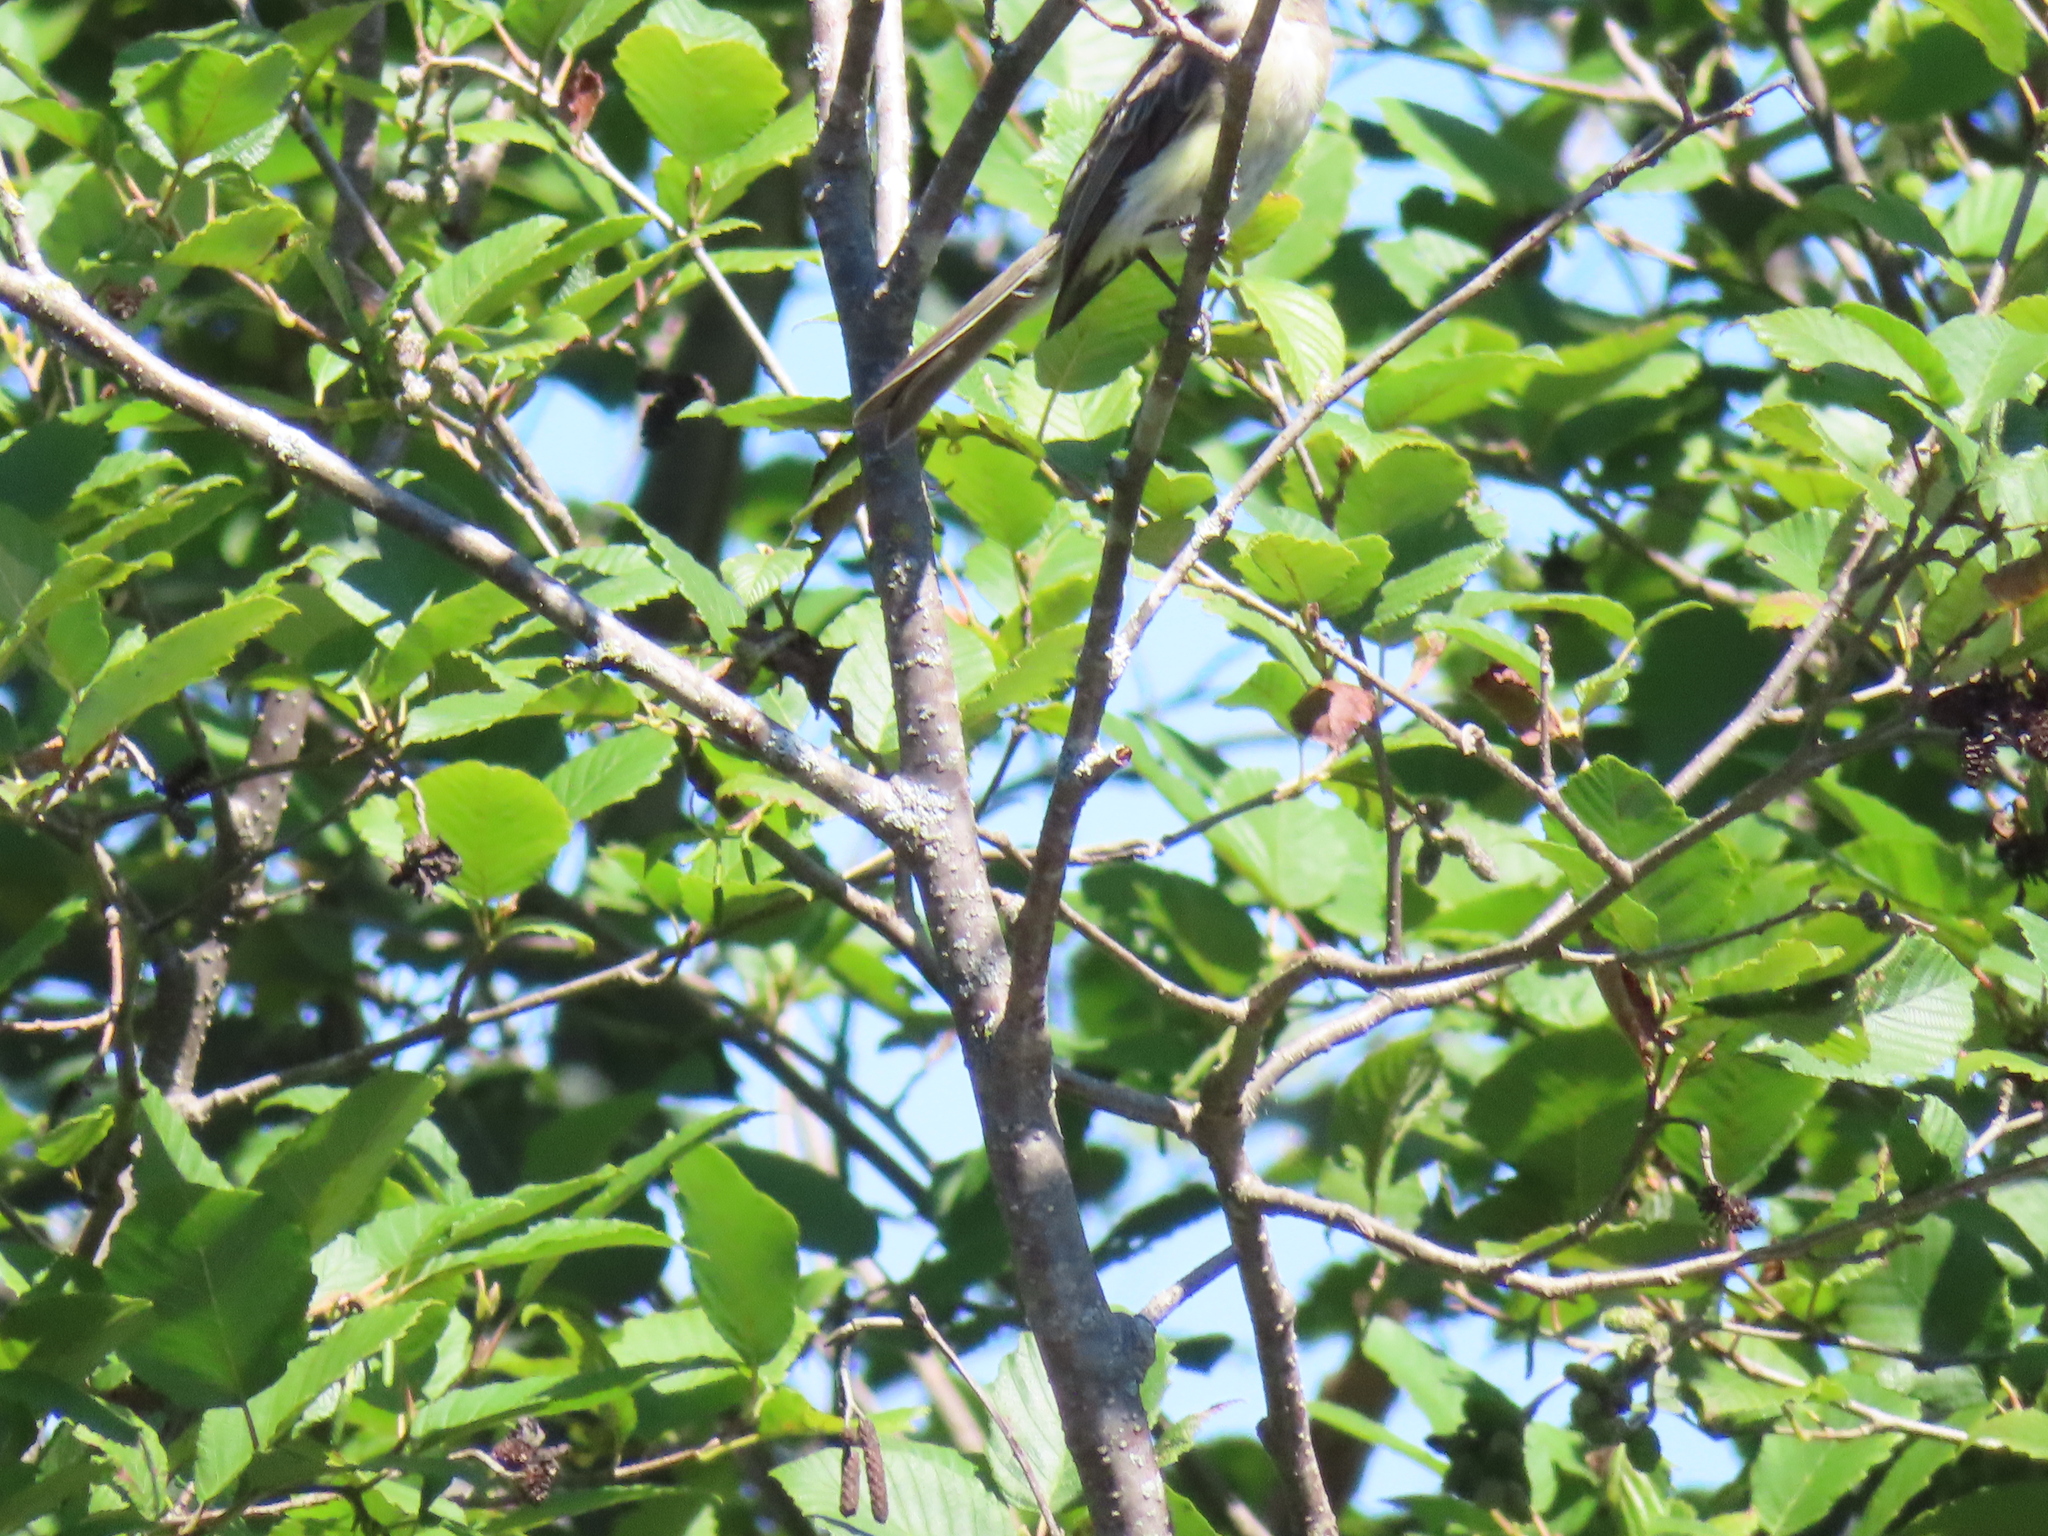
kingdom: Animalia
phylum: Chordata
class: Aves
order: Passeriformes
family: Tyrannidae
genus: Sayornis
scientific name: Sayornis phoebe
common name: Eastern phoebe
